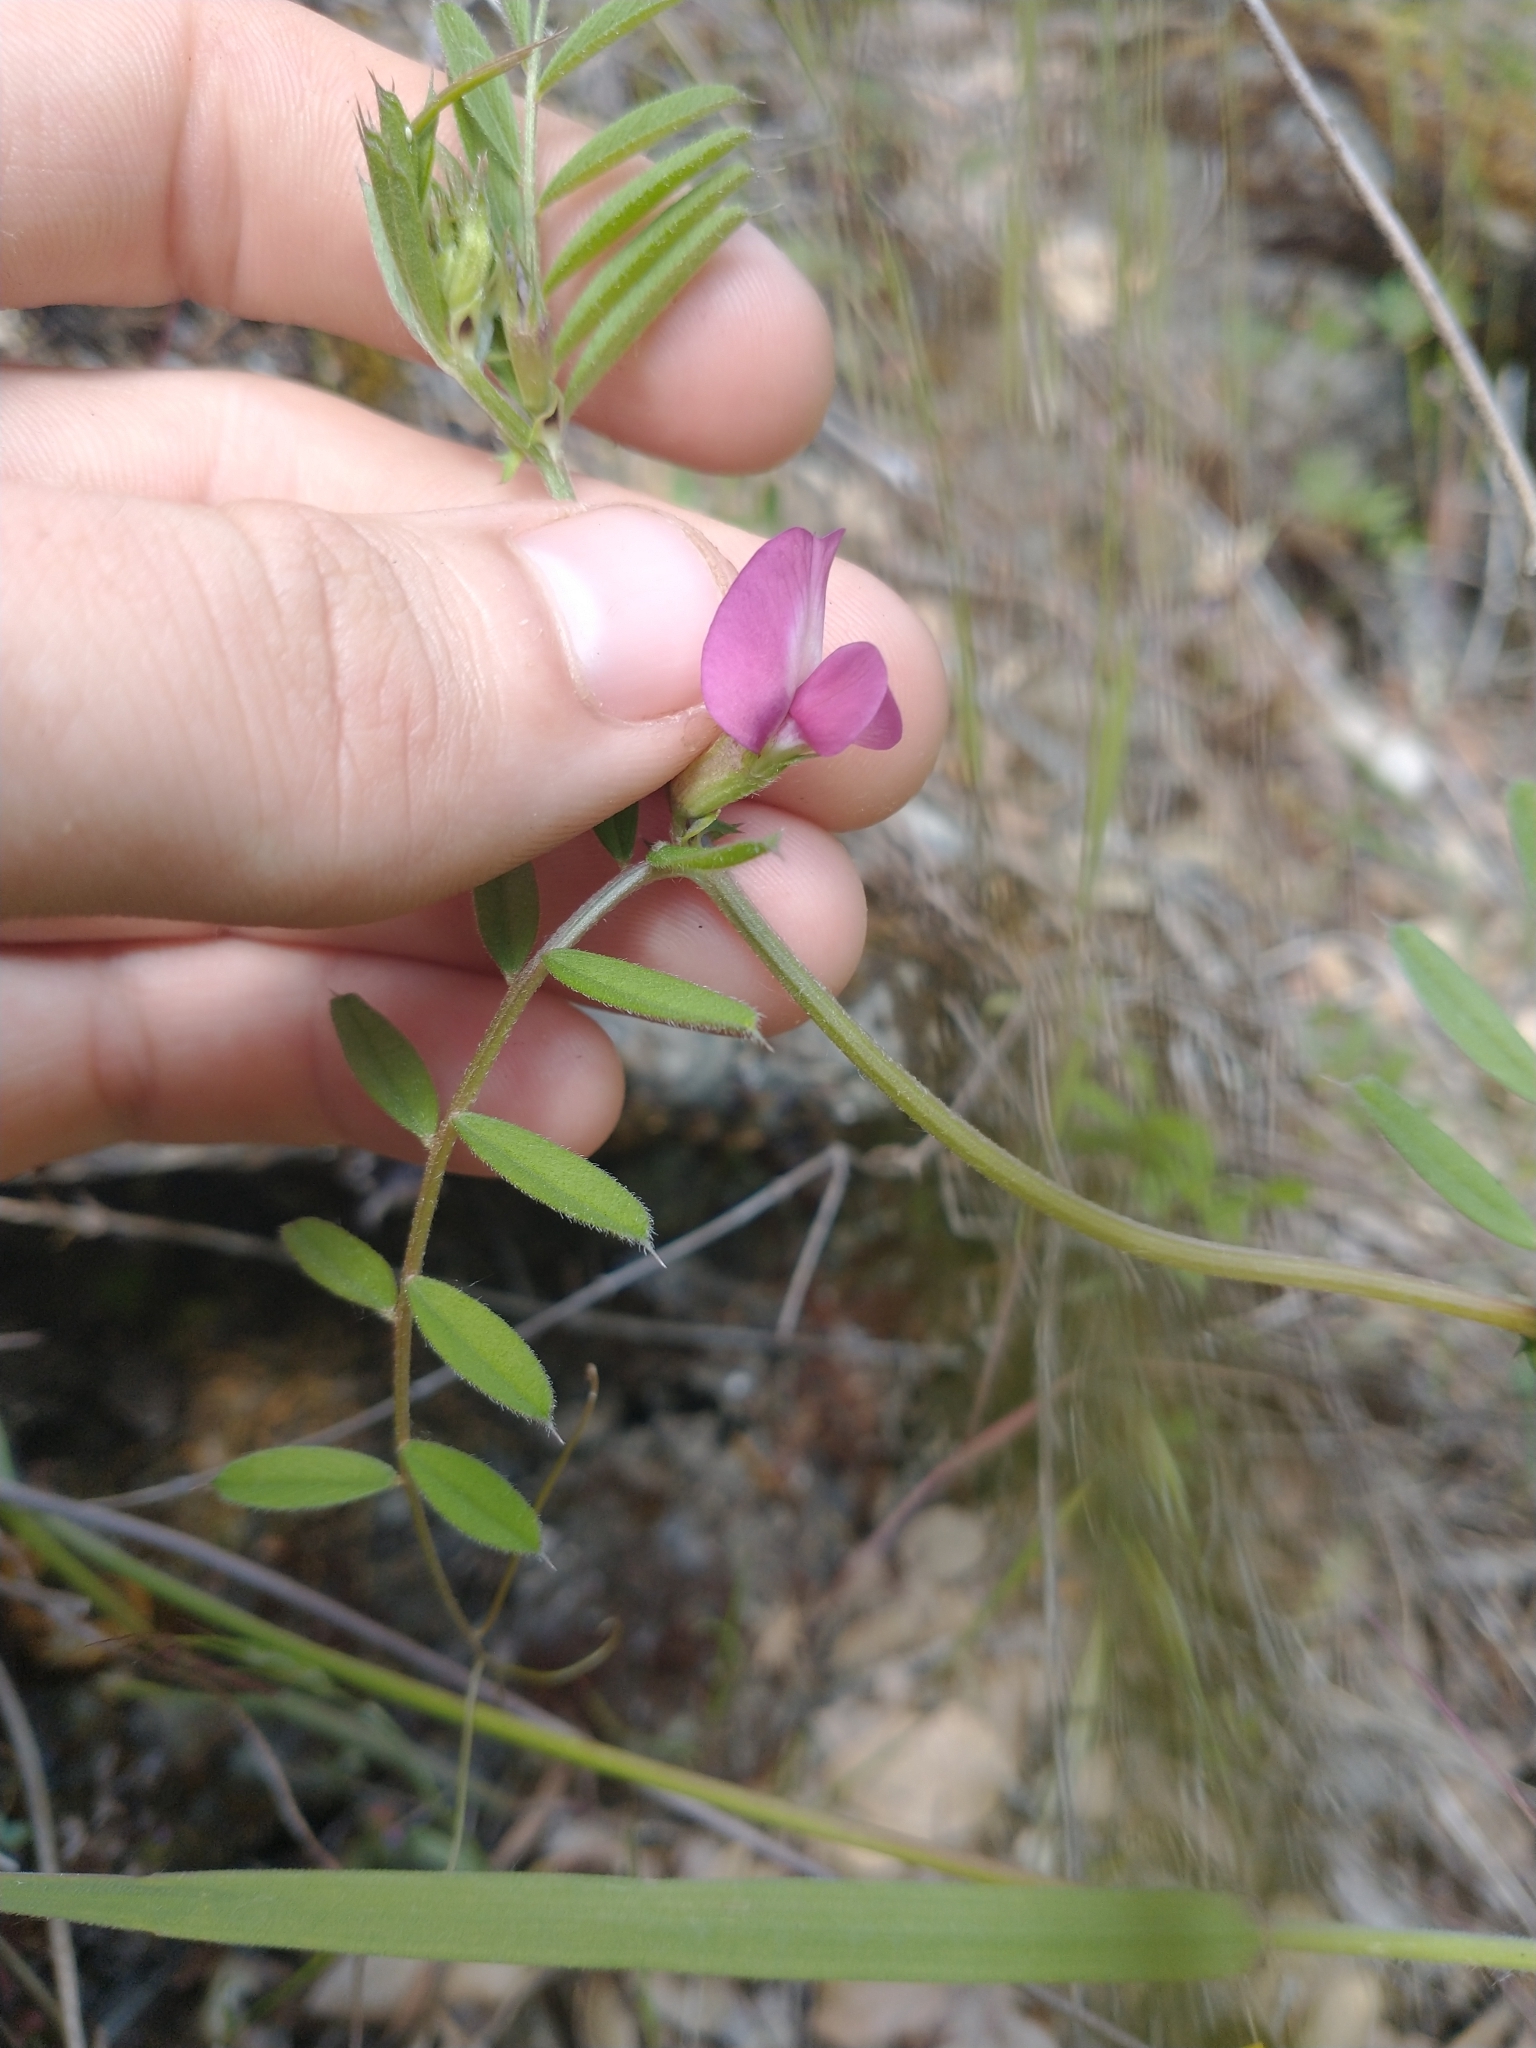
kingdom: Plantae
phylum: Tracheophyta
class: Magnoliopsida
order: Fabales
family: Fabaceae
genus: Vicia
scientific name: Vicia sativa
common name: Garden vetch
